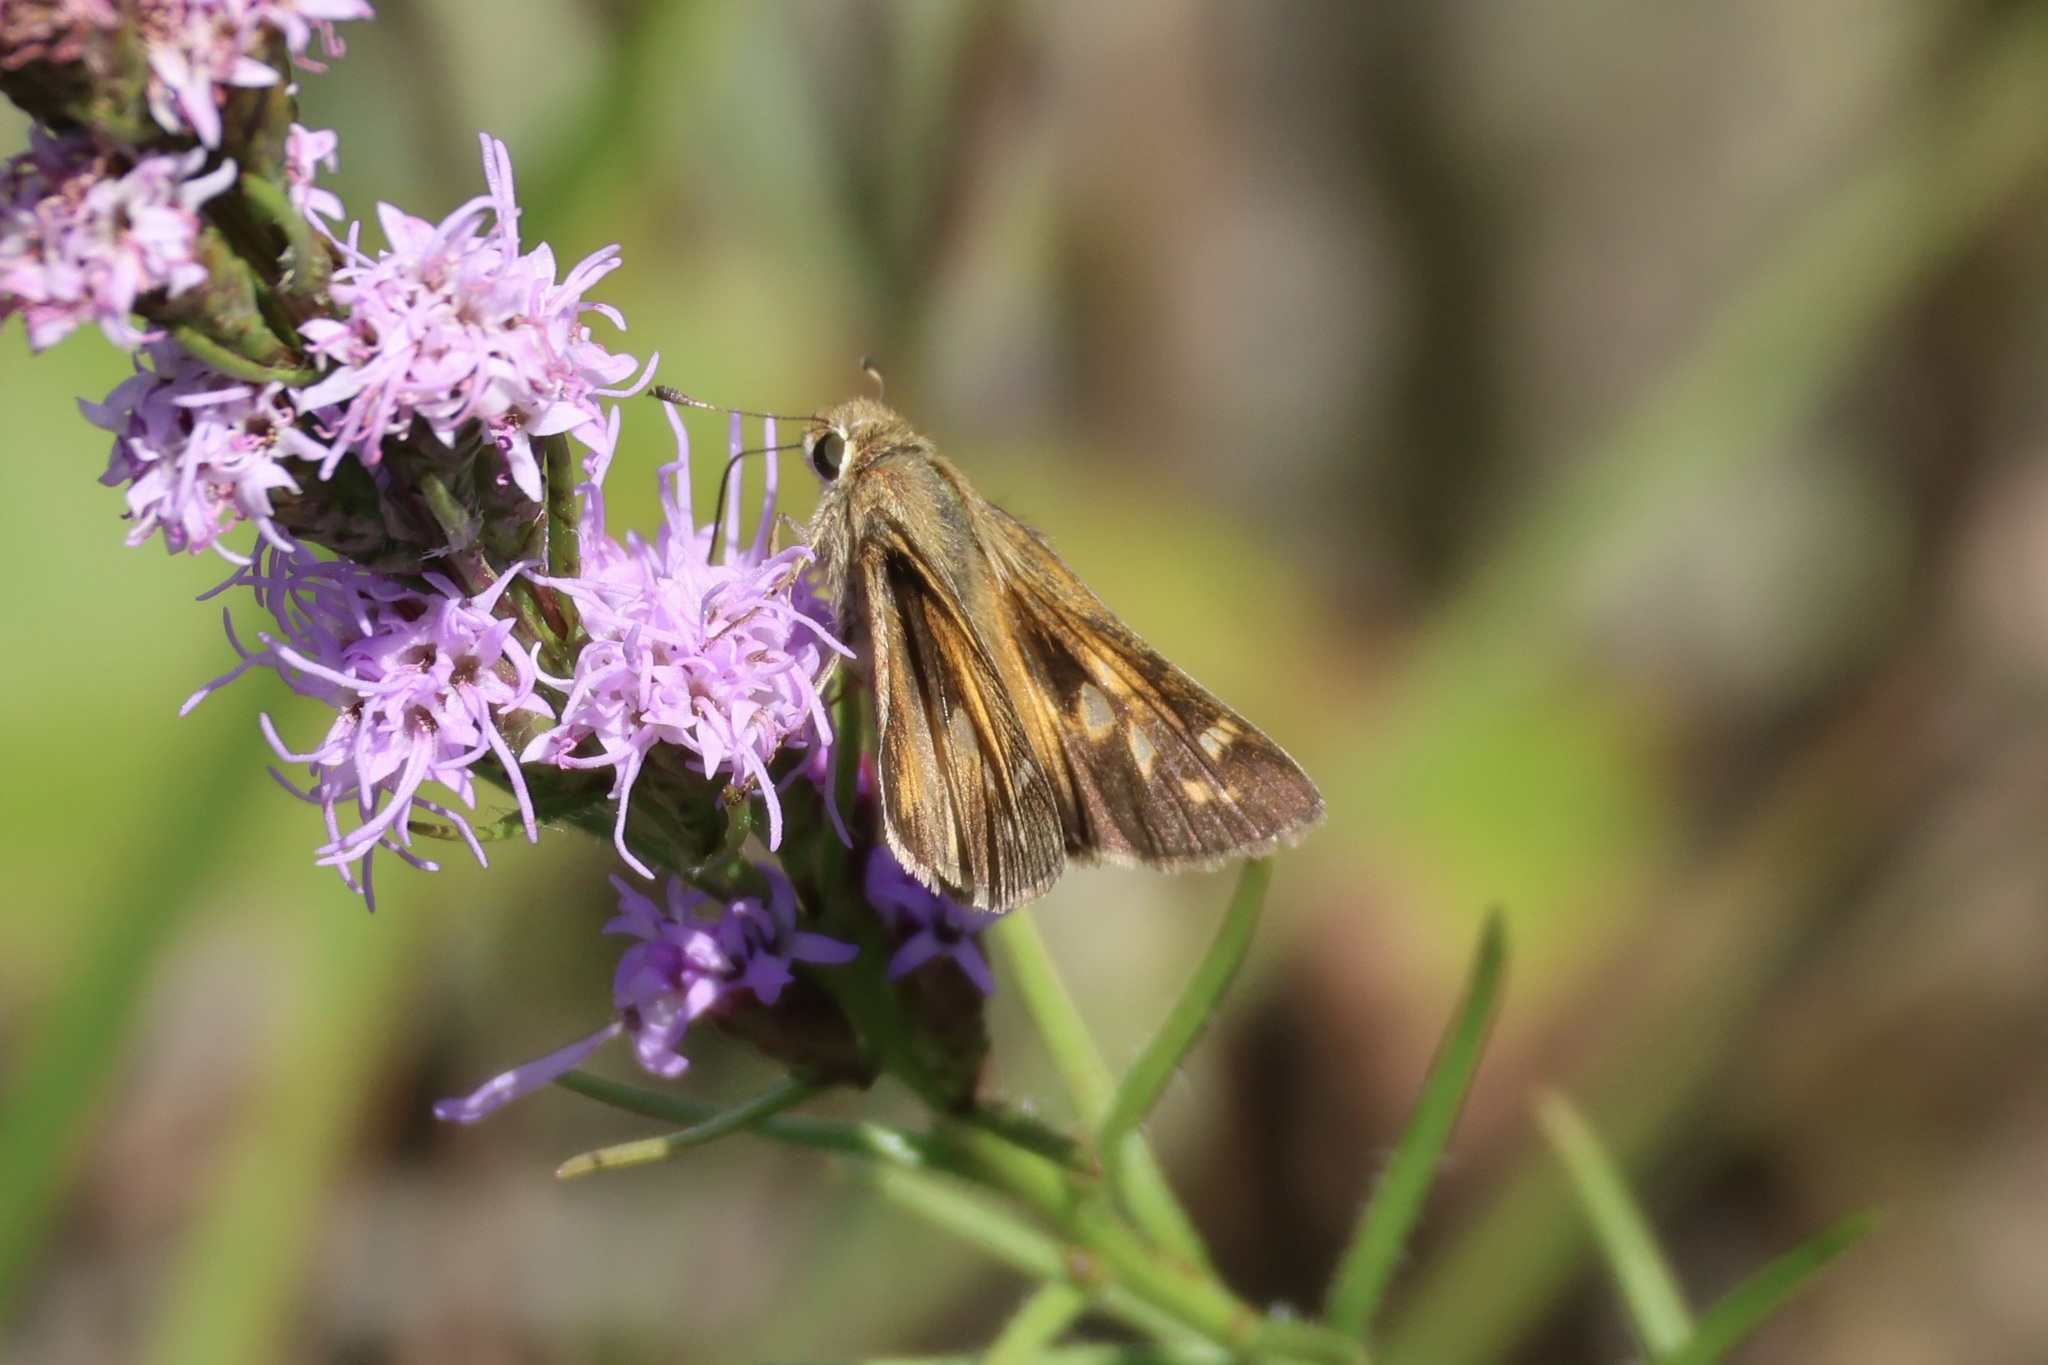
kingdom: Animalia
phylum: Arthropoda
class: Insecta
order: Lepidoptera
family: Hesperiidae
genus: Atalopedes
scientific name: Atalopedes
